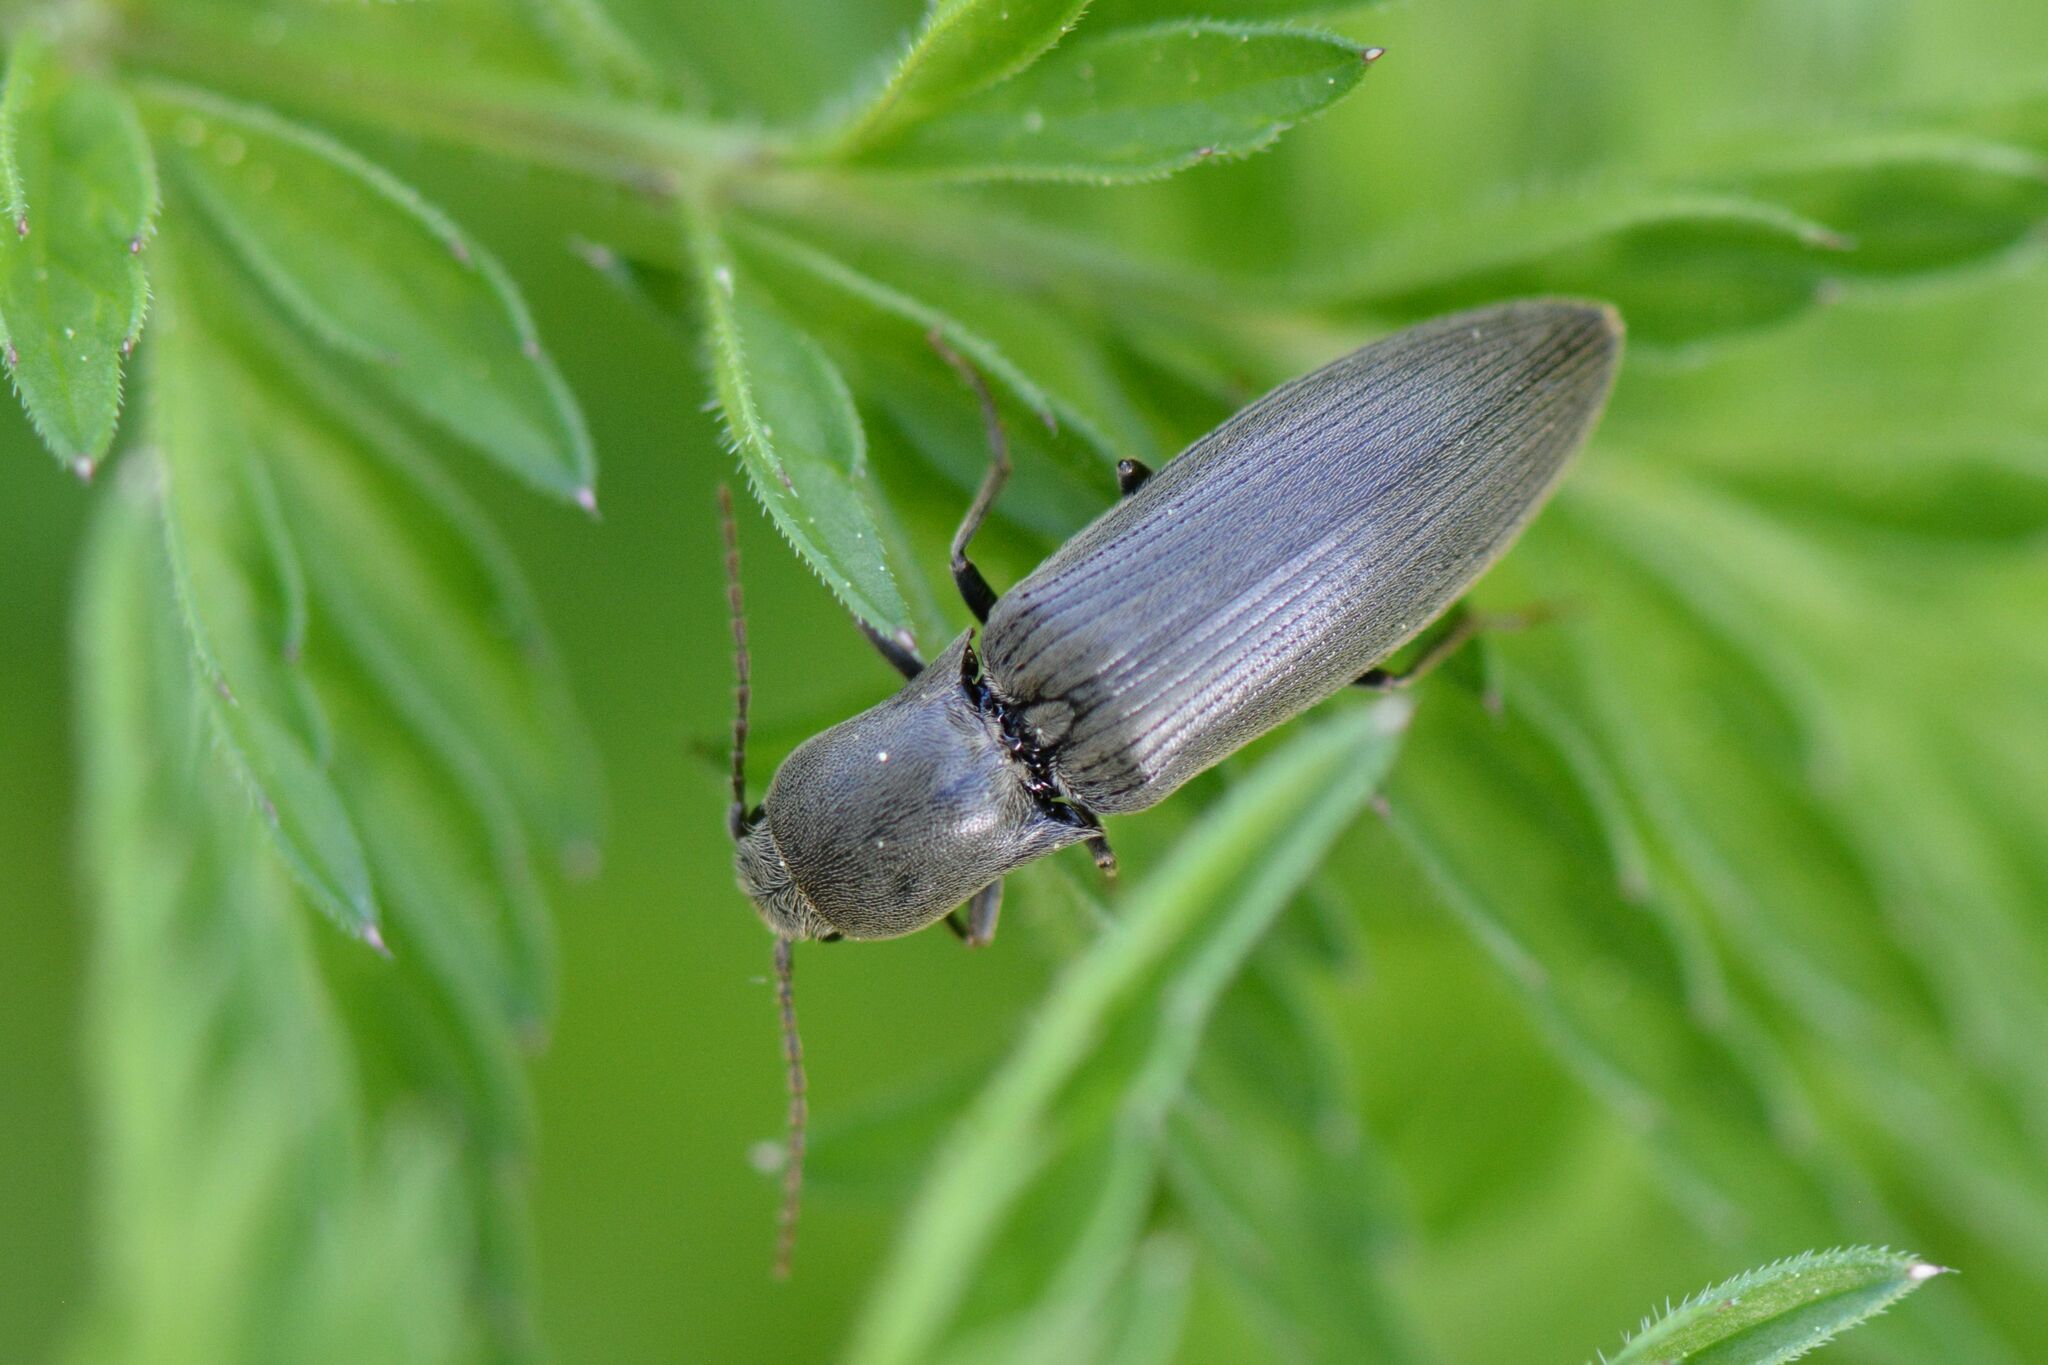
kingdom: Animalia
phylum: Arthropoda
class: Insecta
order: Coleoptera
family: Elateridae
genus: Agriotes
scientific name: Agriotes pilosellus
